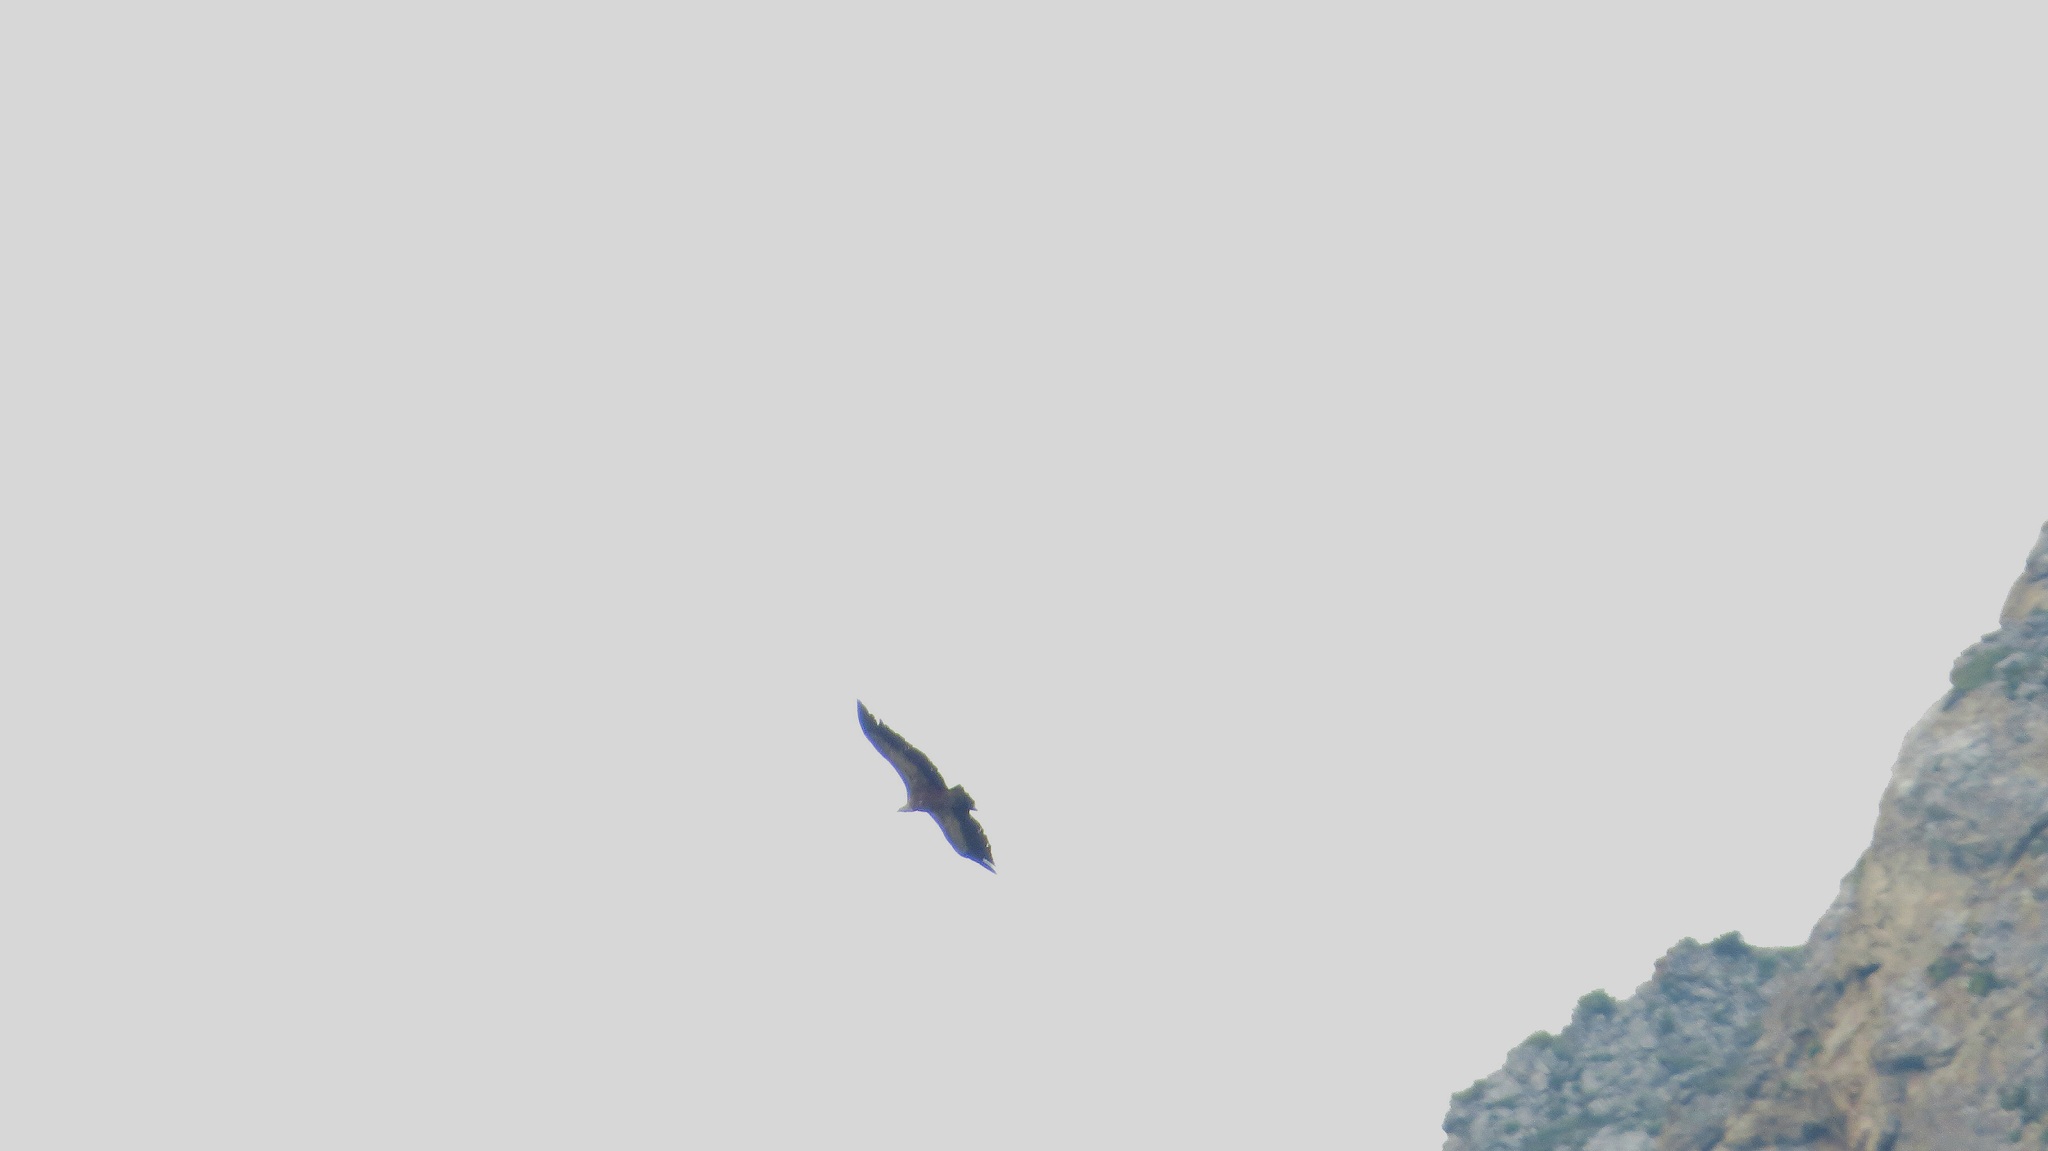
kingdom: Animalia
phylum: Chordata
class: Aves
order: Accipitriformes
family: Accipitridae
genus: Gyps
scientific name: Gyps fulvus
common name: Griffon vulture
